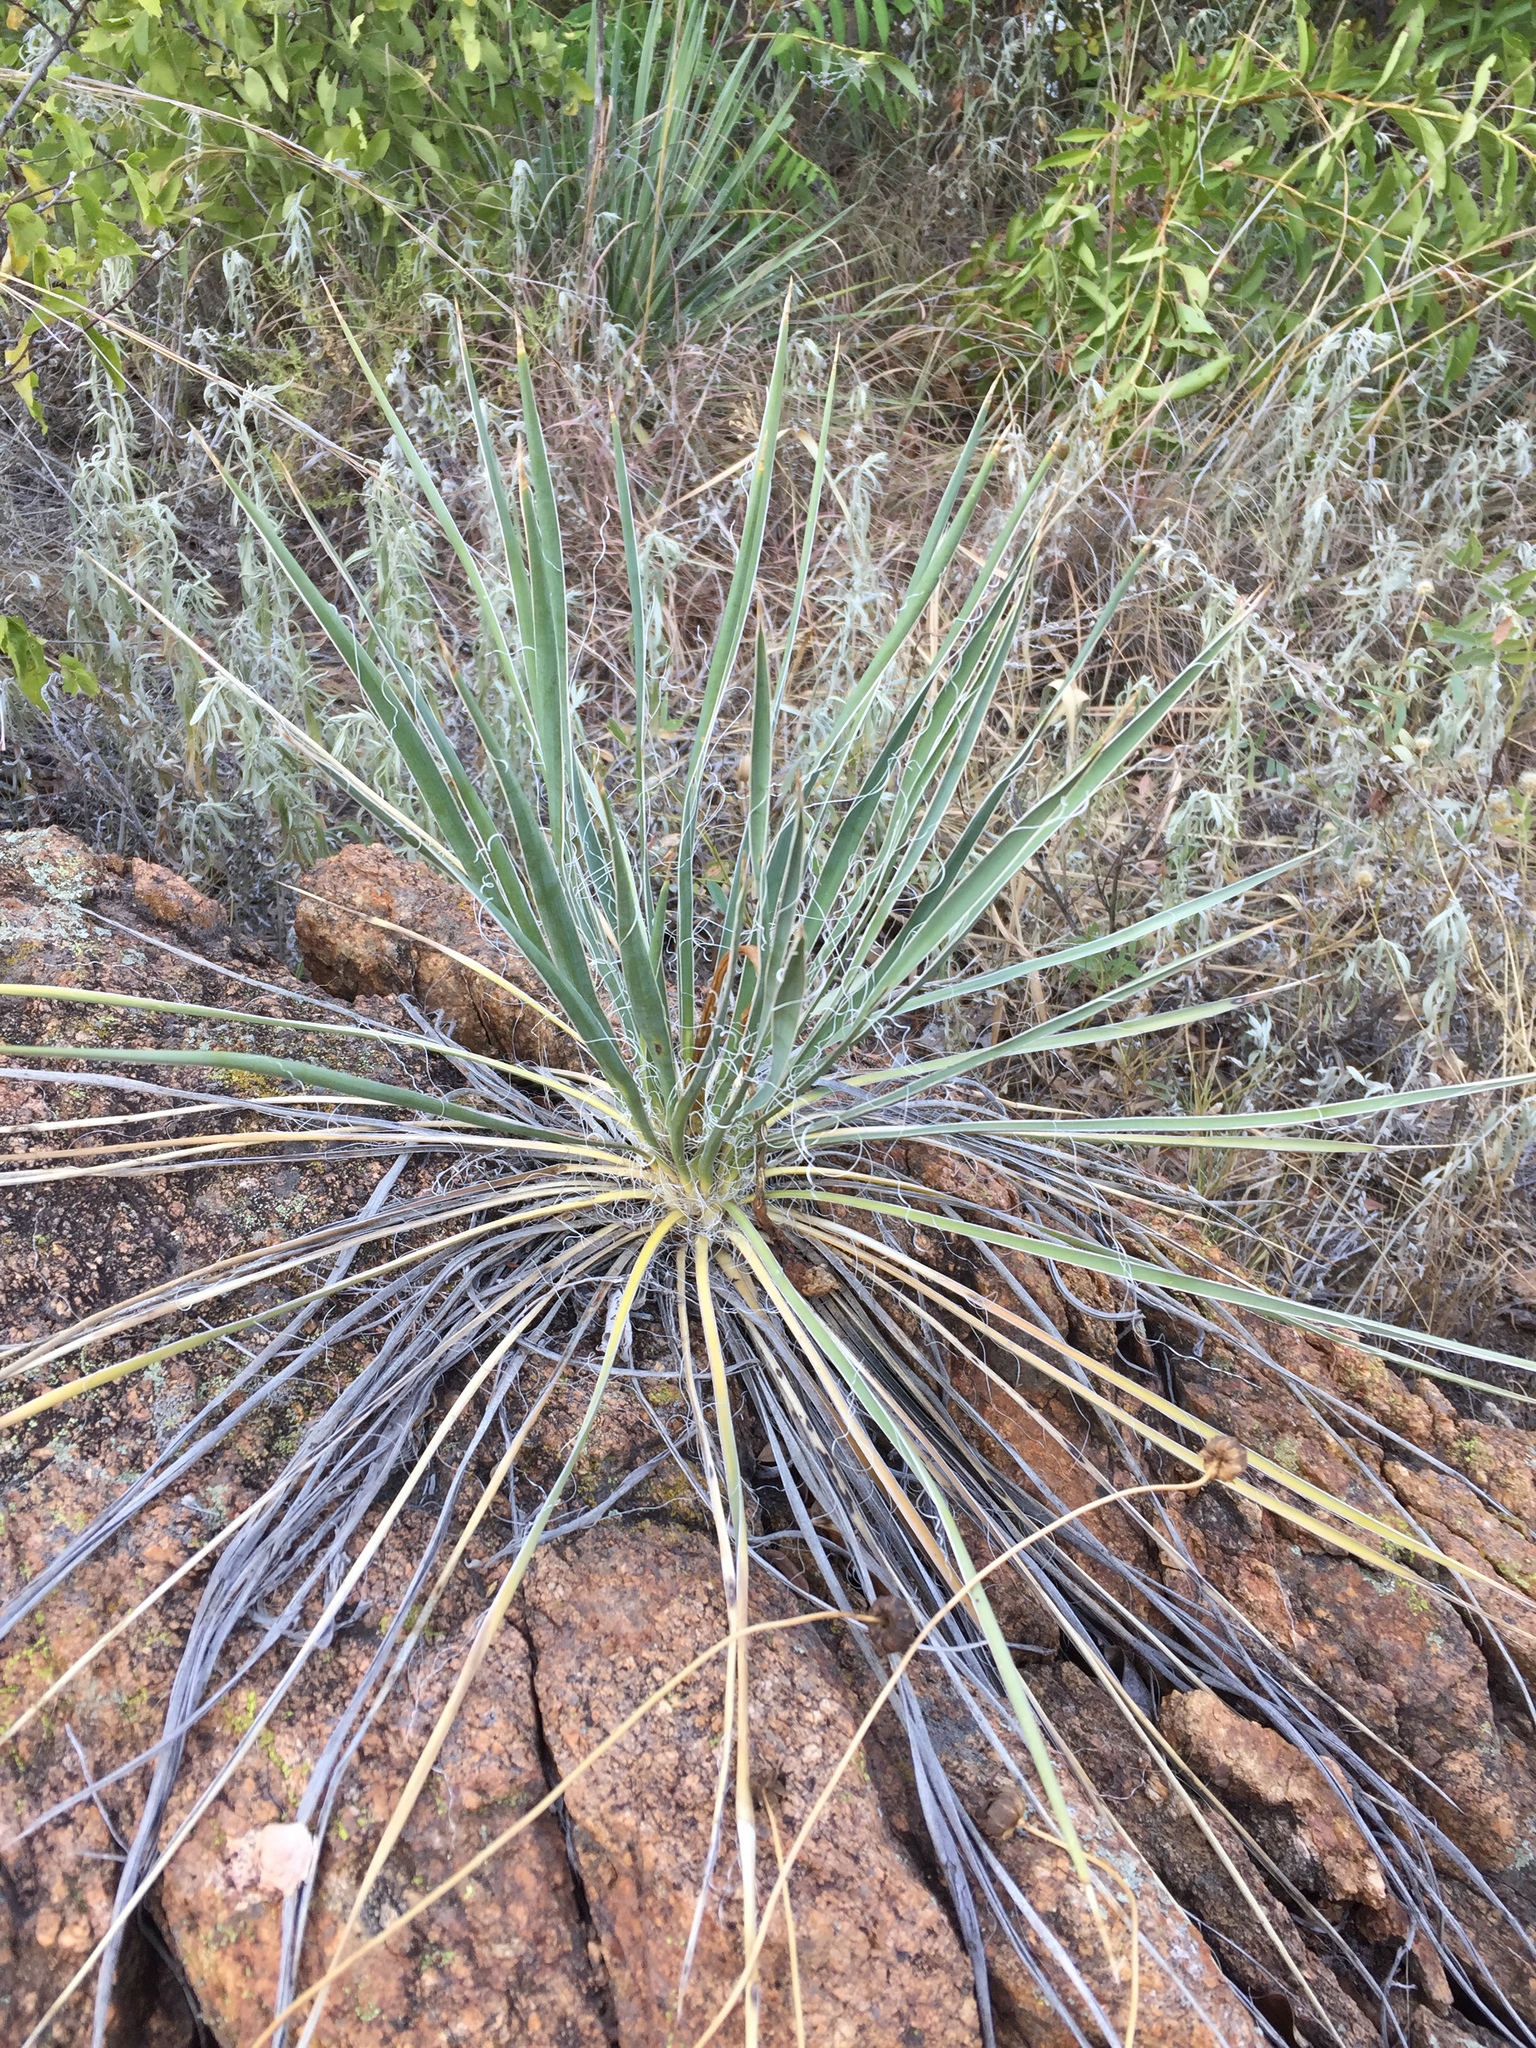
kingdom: Plantae
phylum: Tracheophyta
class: Liliopsida
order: Asparagales
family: Asparagaceae
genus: Yucca
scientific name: Yucca glauca
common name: Great plains yucca
